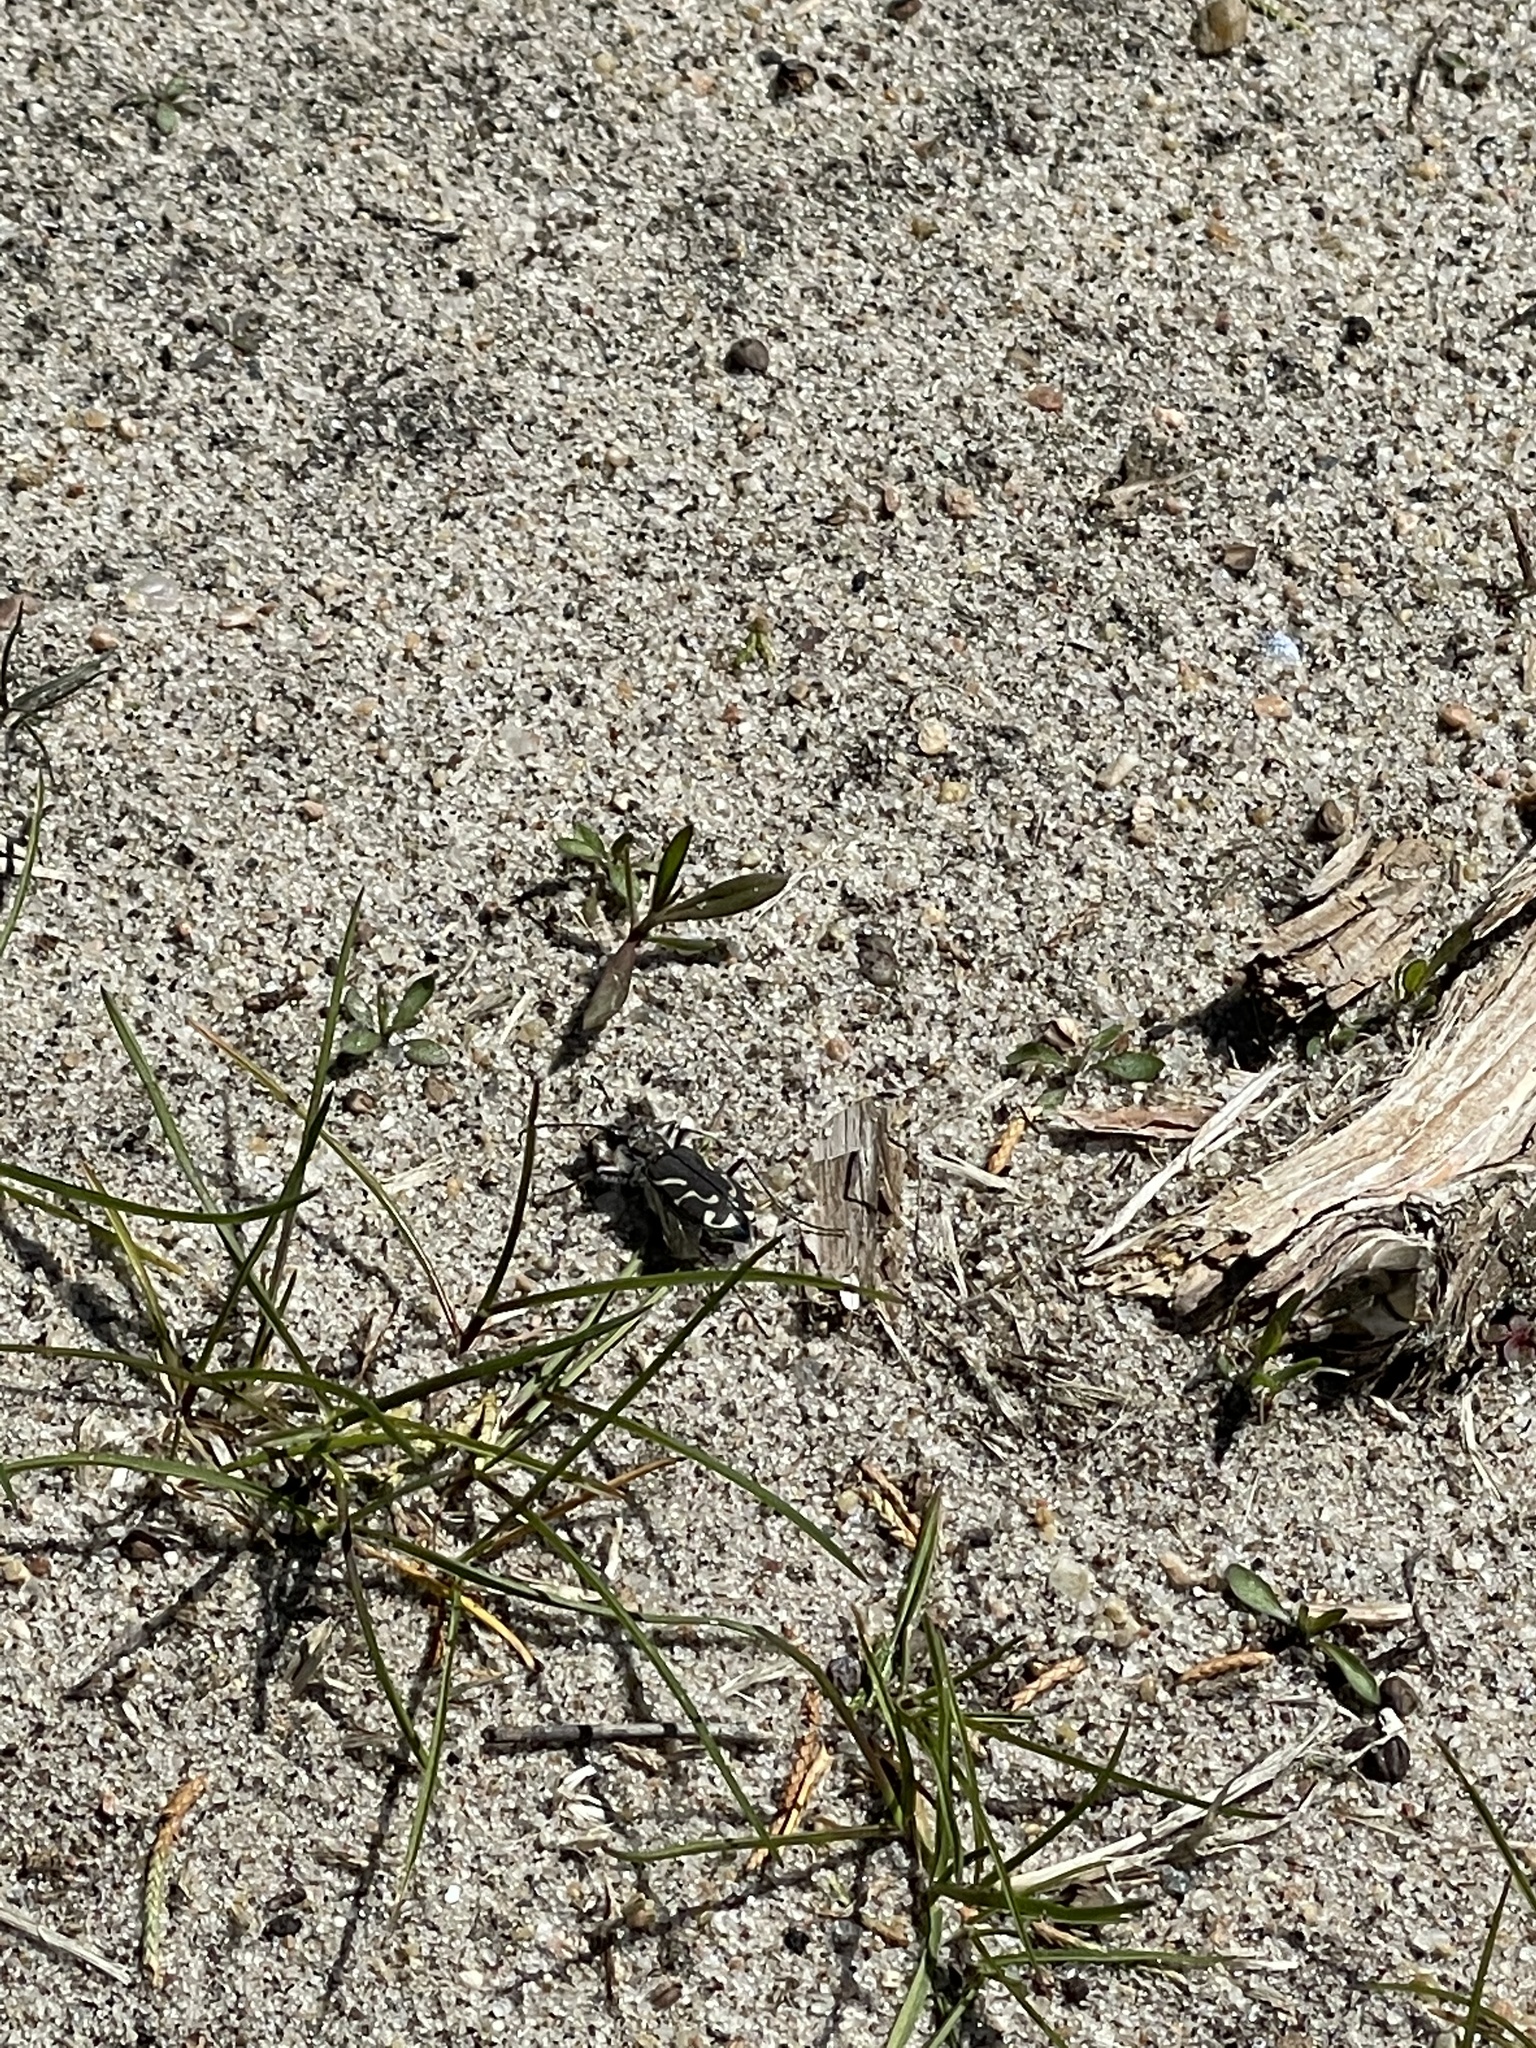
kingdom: Animalia
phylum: Arthropoda
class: Insecta
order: Coleoptera
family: Carabidae
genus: Cicindela
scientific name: Cicindela tranquebarica
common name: Oblique-lined tiger beetle
